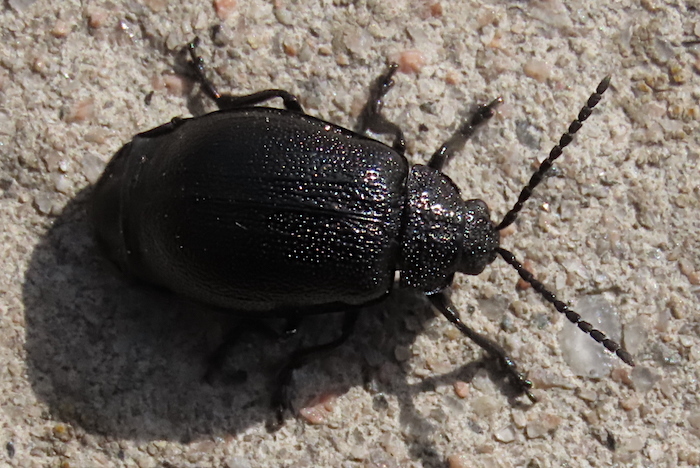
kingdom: Animalia
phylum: Arthropoda
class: Insecta
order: Coleoptera
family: Chrysomelidae
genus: Galeruca
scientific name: Galeruca tanaceti
